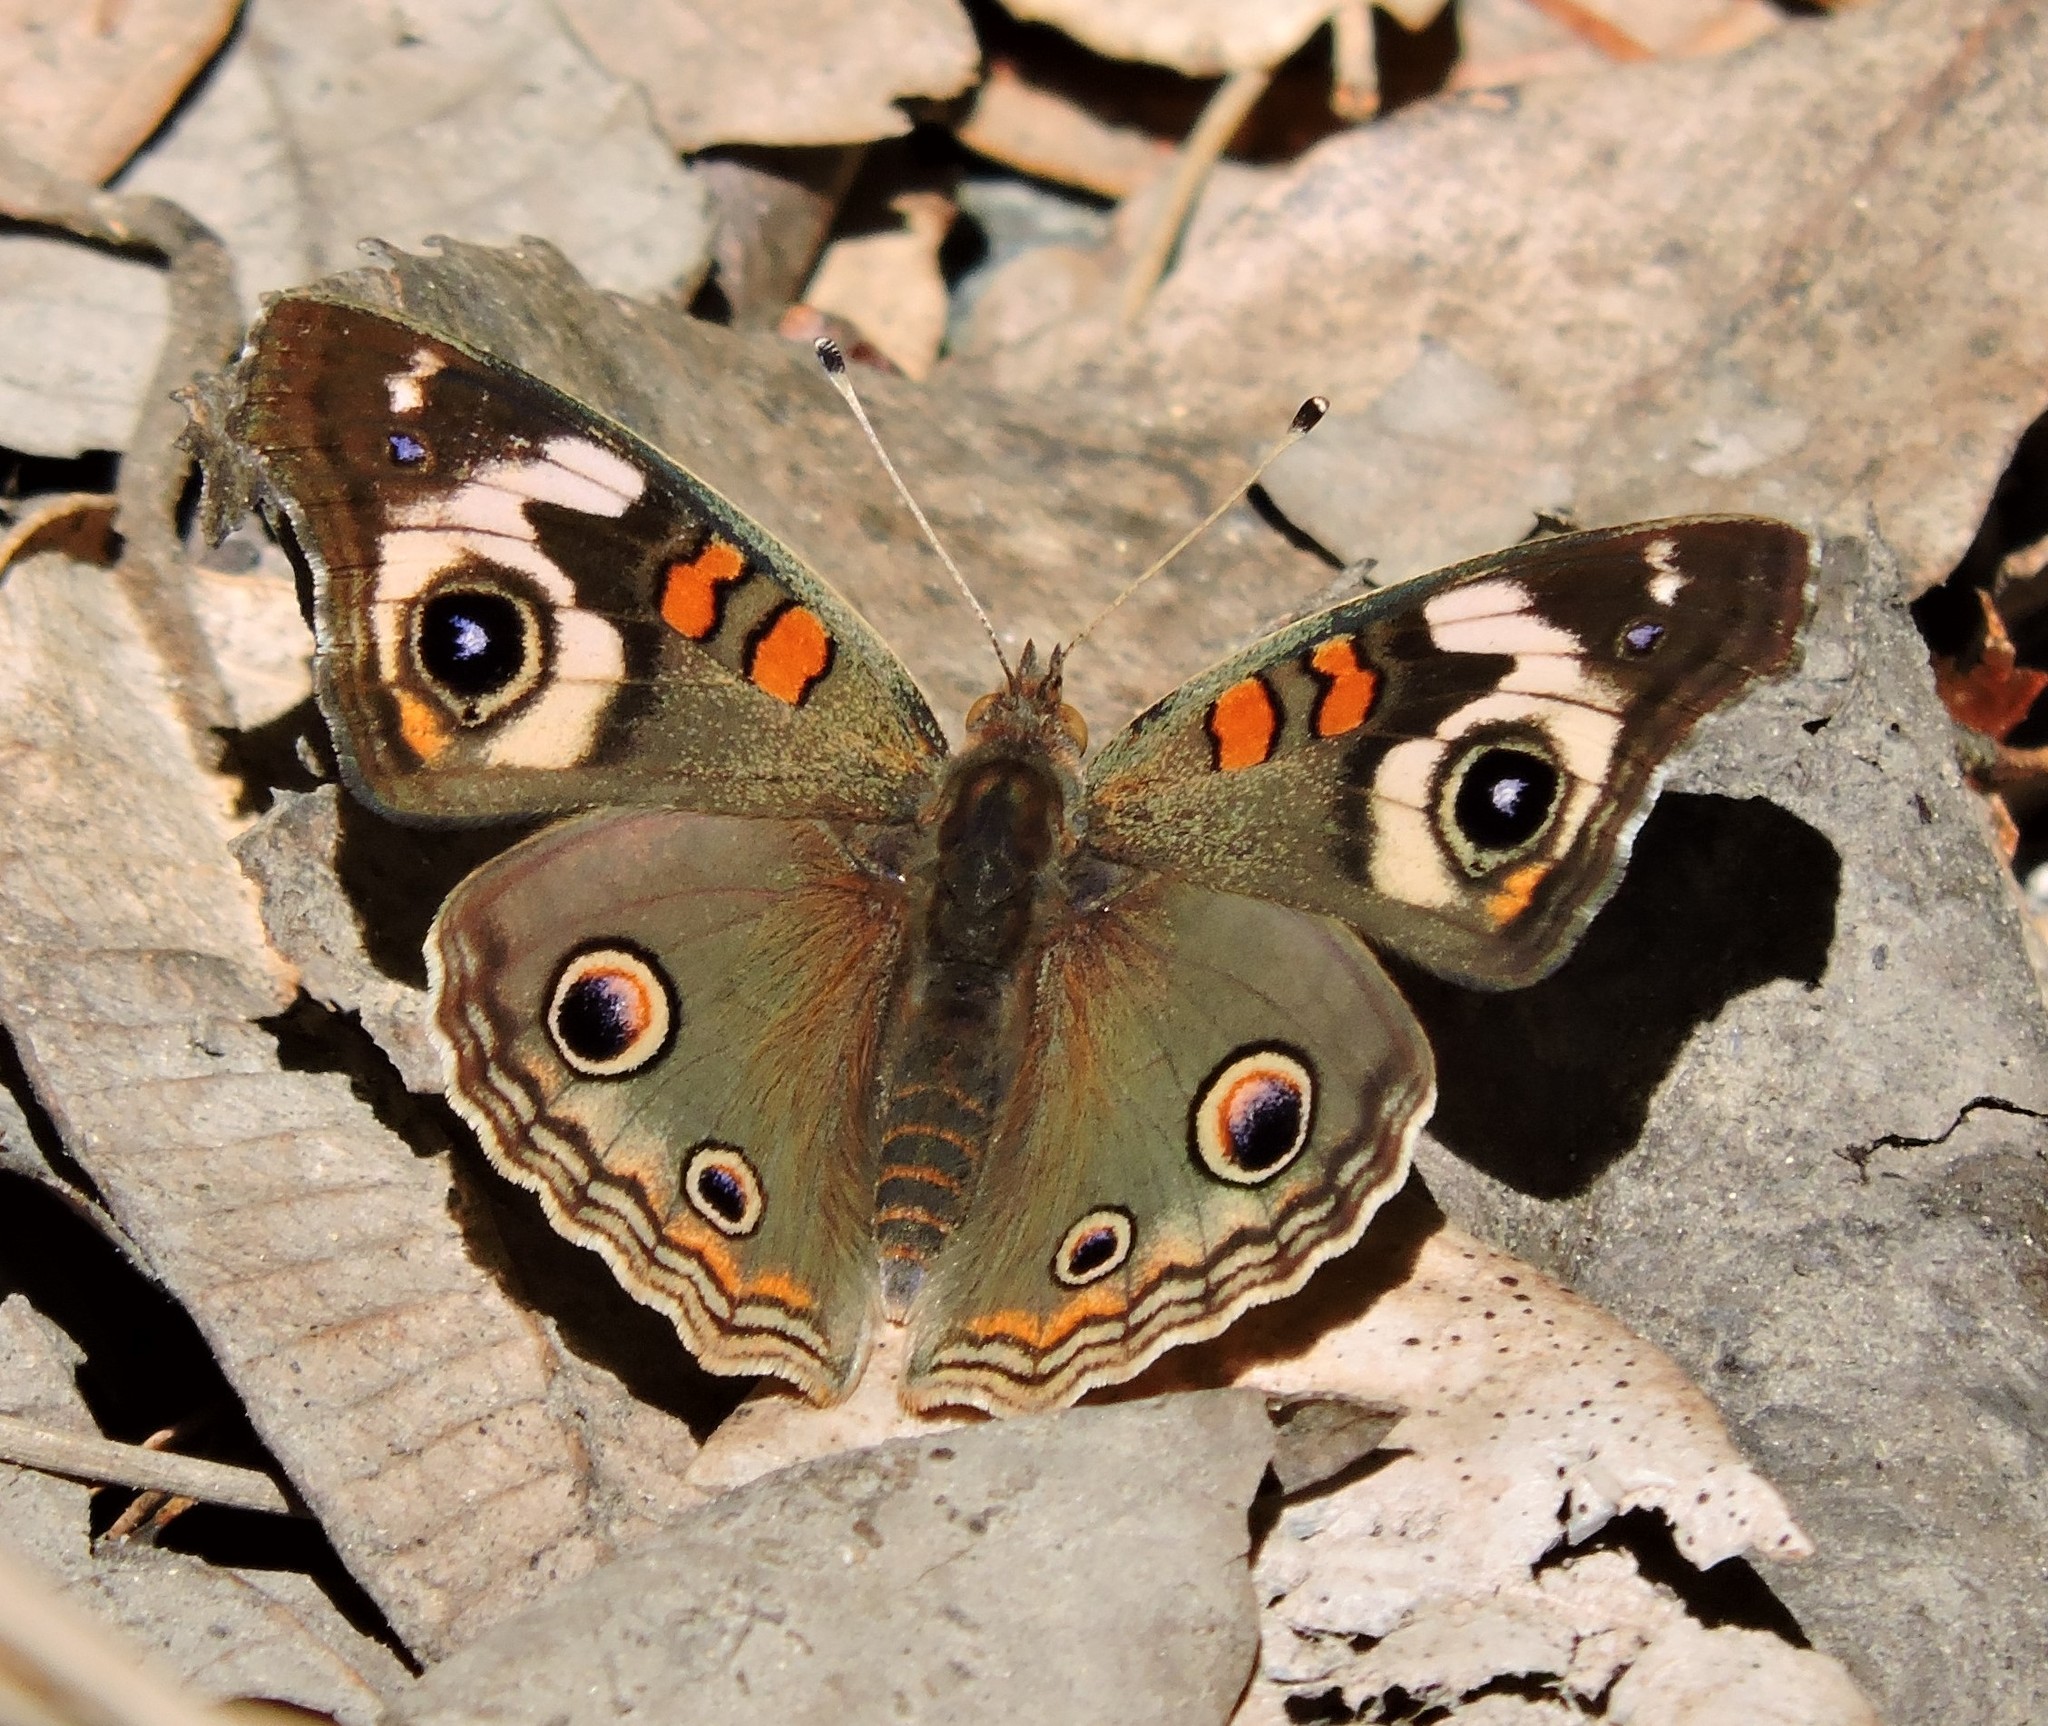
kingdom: Animalia
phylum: Arthropoda
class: Insecta
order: Lepidoptera
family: Nymphalidae
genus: Junonia
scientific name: Junonia grisea
